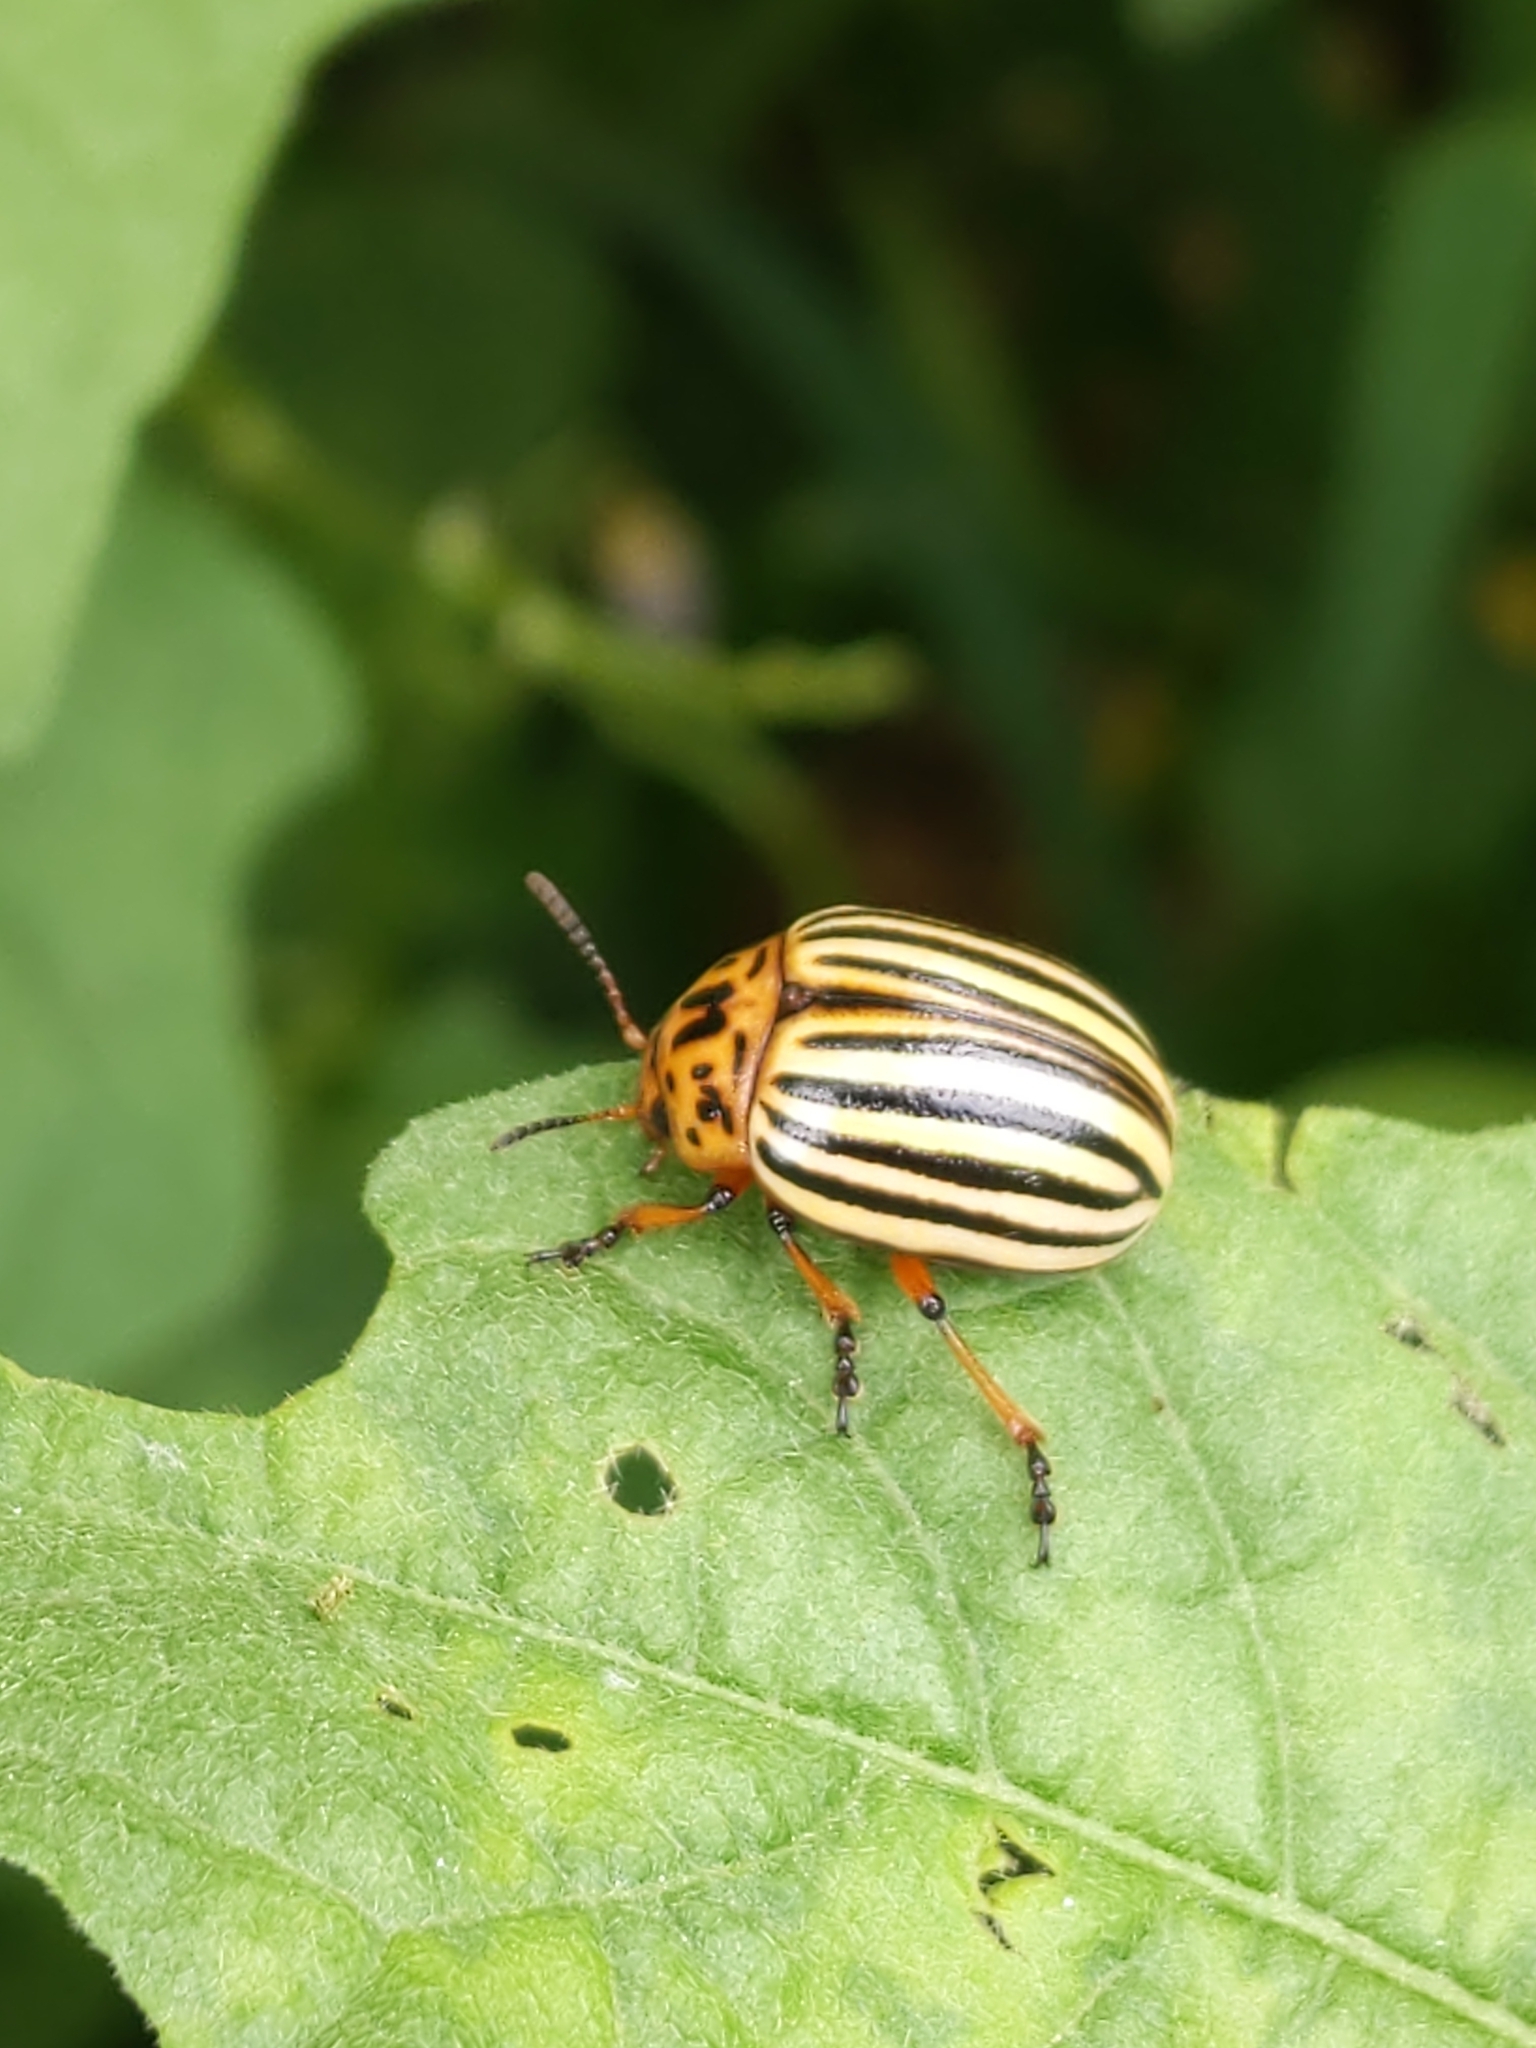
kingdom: Animalia
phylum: Arthropoda
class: Insecta
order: Coleoptera
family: Chrysomelidae
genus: Leptinotarsa
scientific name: Leptinotarsa decemlineata
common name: Colorado potato beetle
